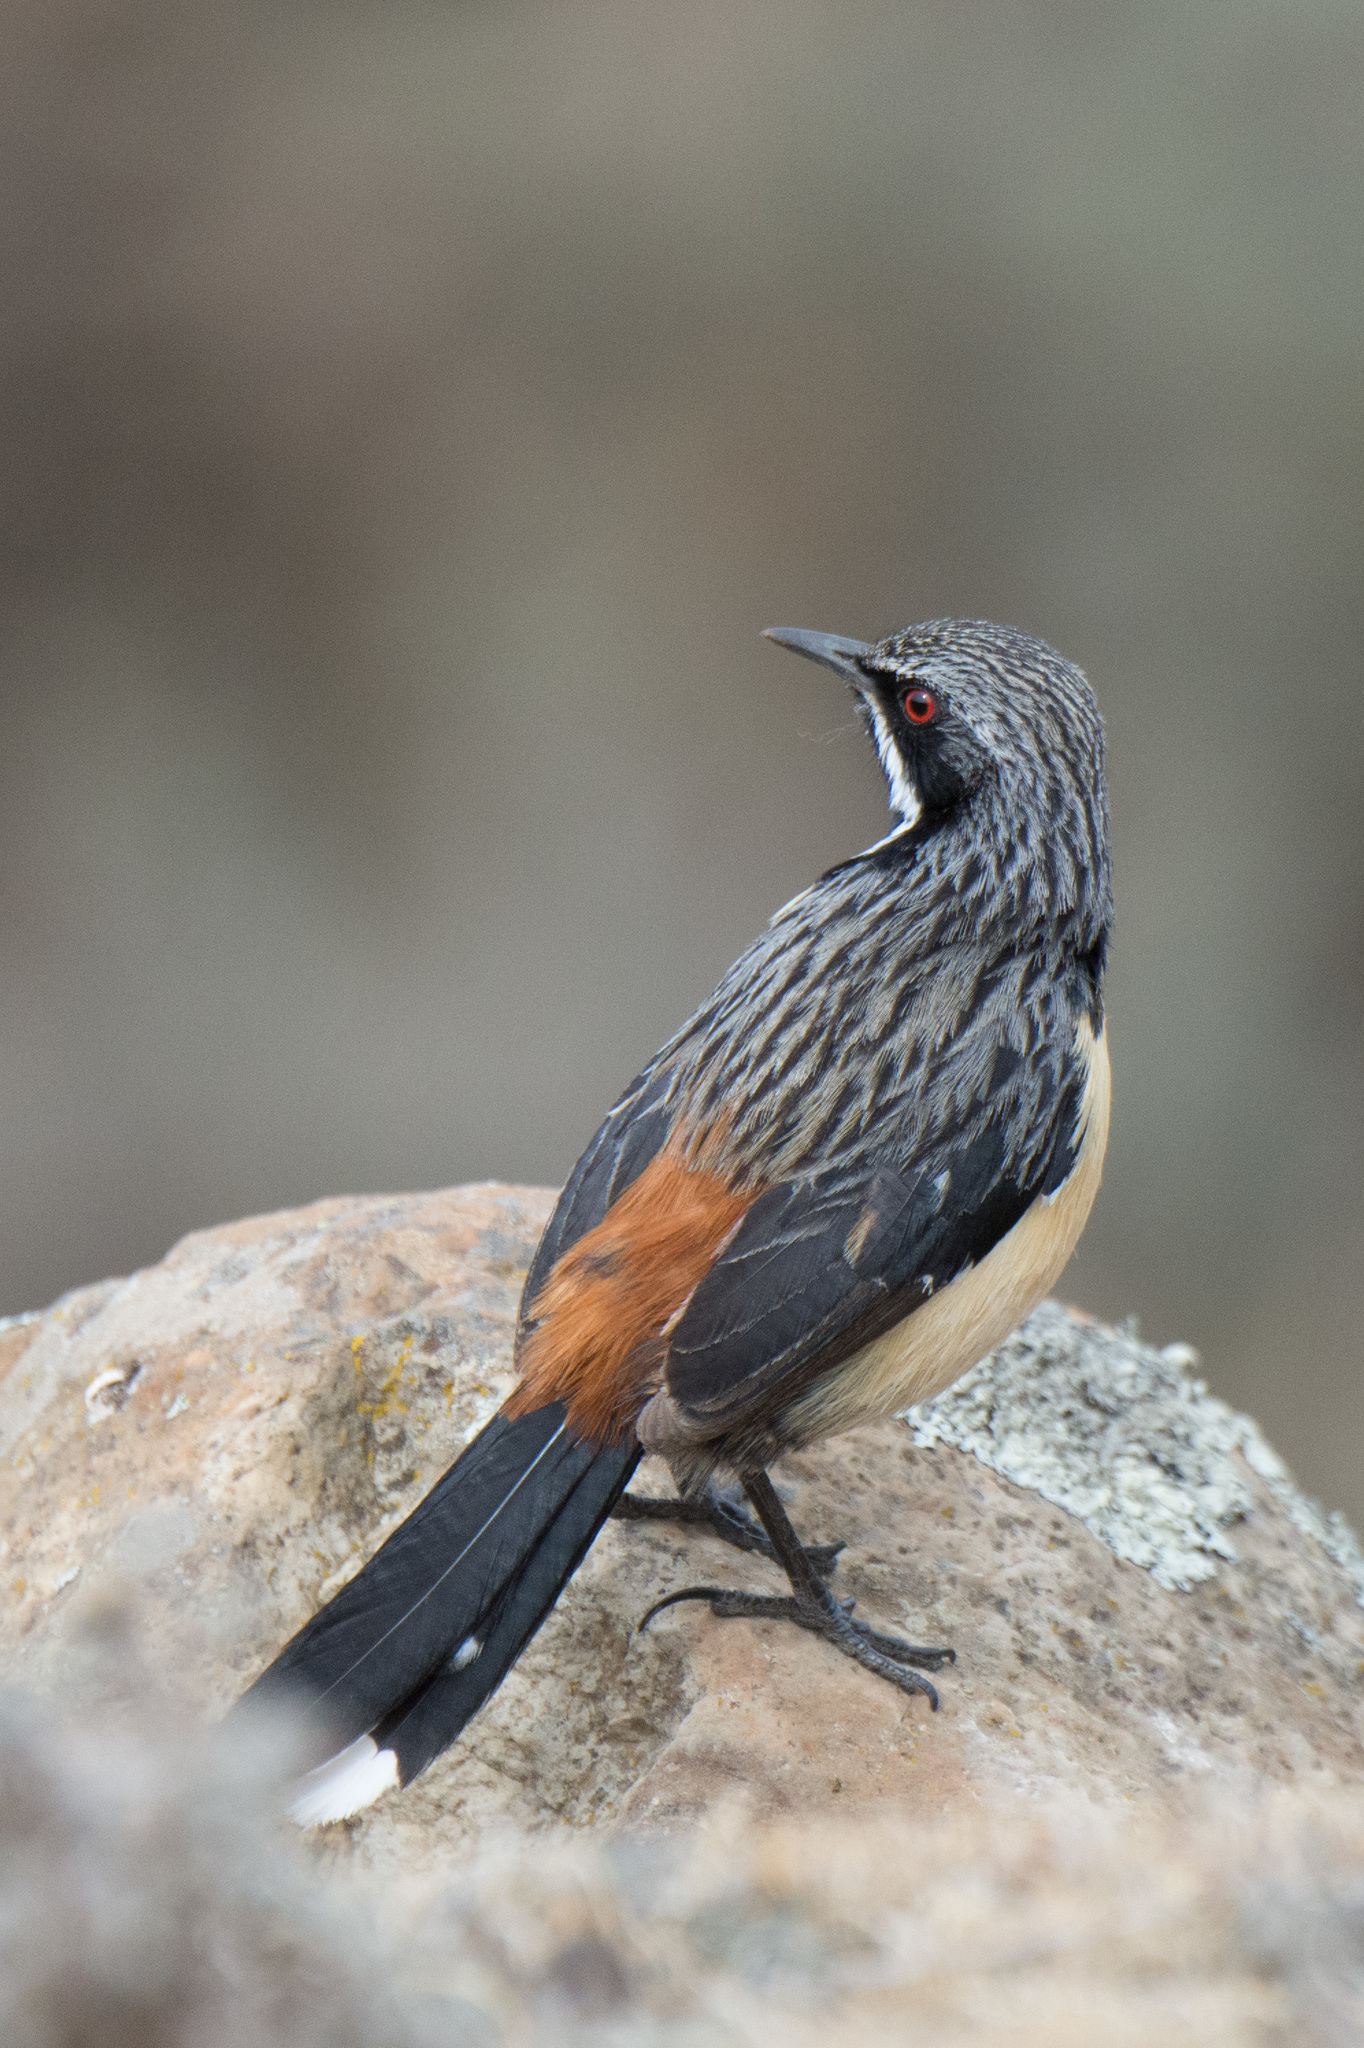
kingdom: Animalia
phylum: Chordata
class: Aves
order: Passeriformes
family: Chaetopidae
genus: Chaetops
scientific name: Chaetops aurantius
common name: Drakensberg rockjumper
